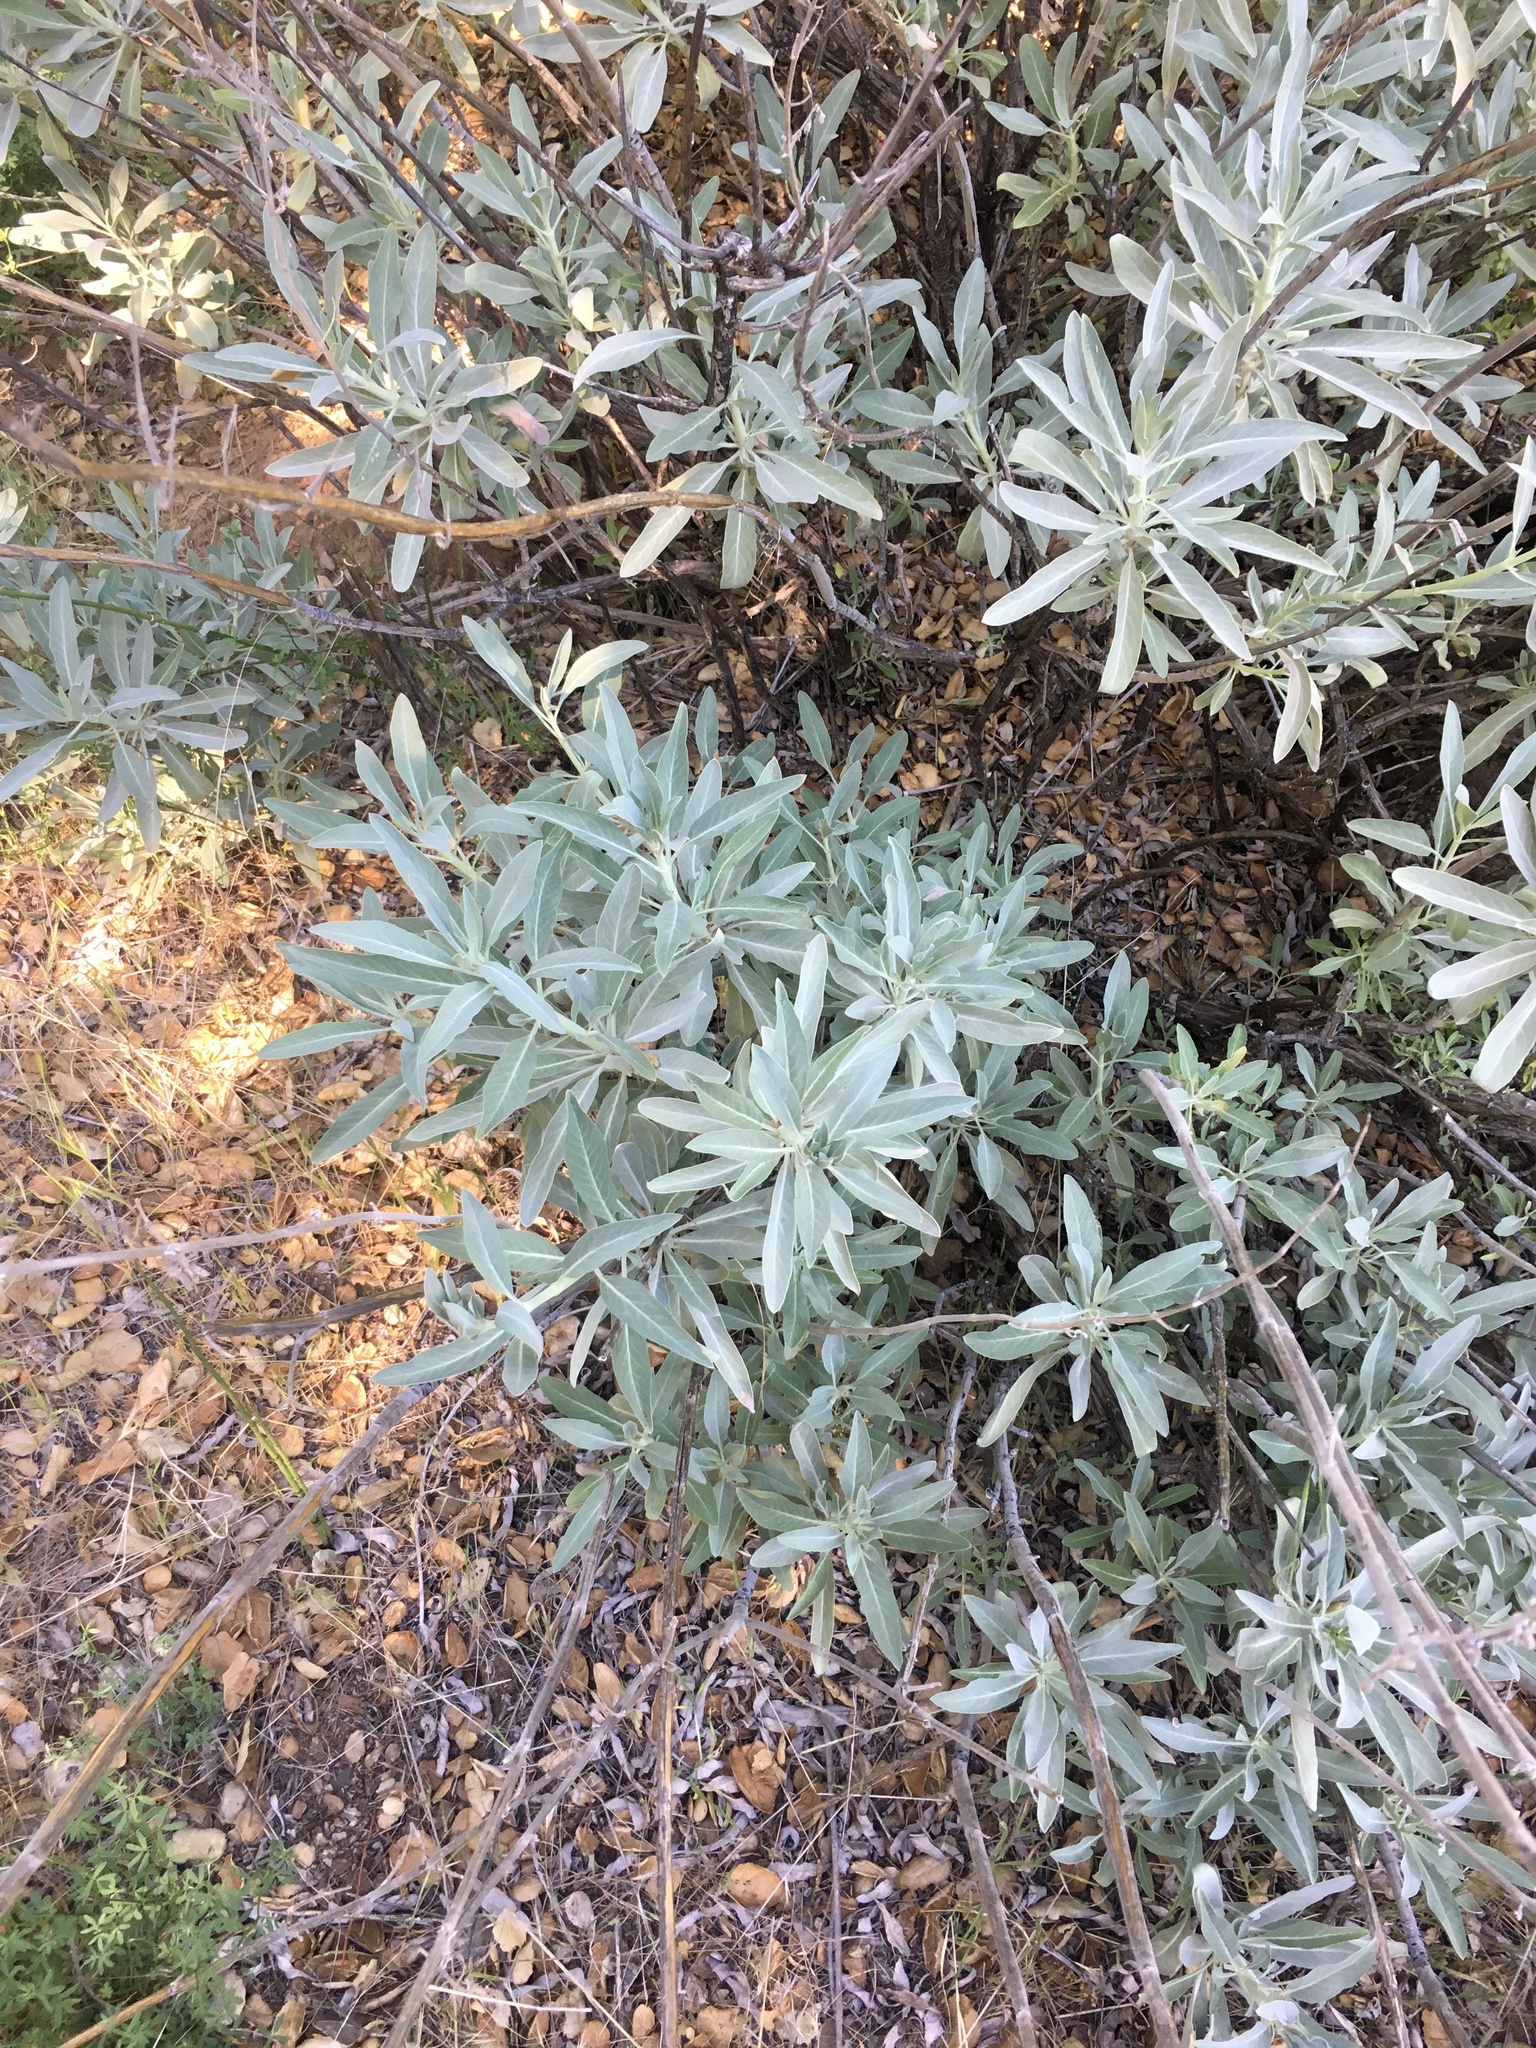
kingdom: Plantae
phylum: Tracheophyta
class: Magnoliopsida
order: Lamiales
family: Lamiaceae
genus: Salvia
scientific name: Salvia apiana
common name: White sage
